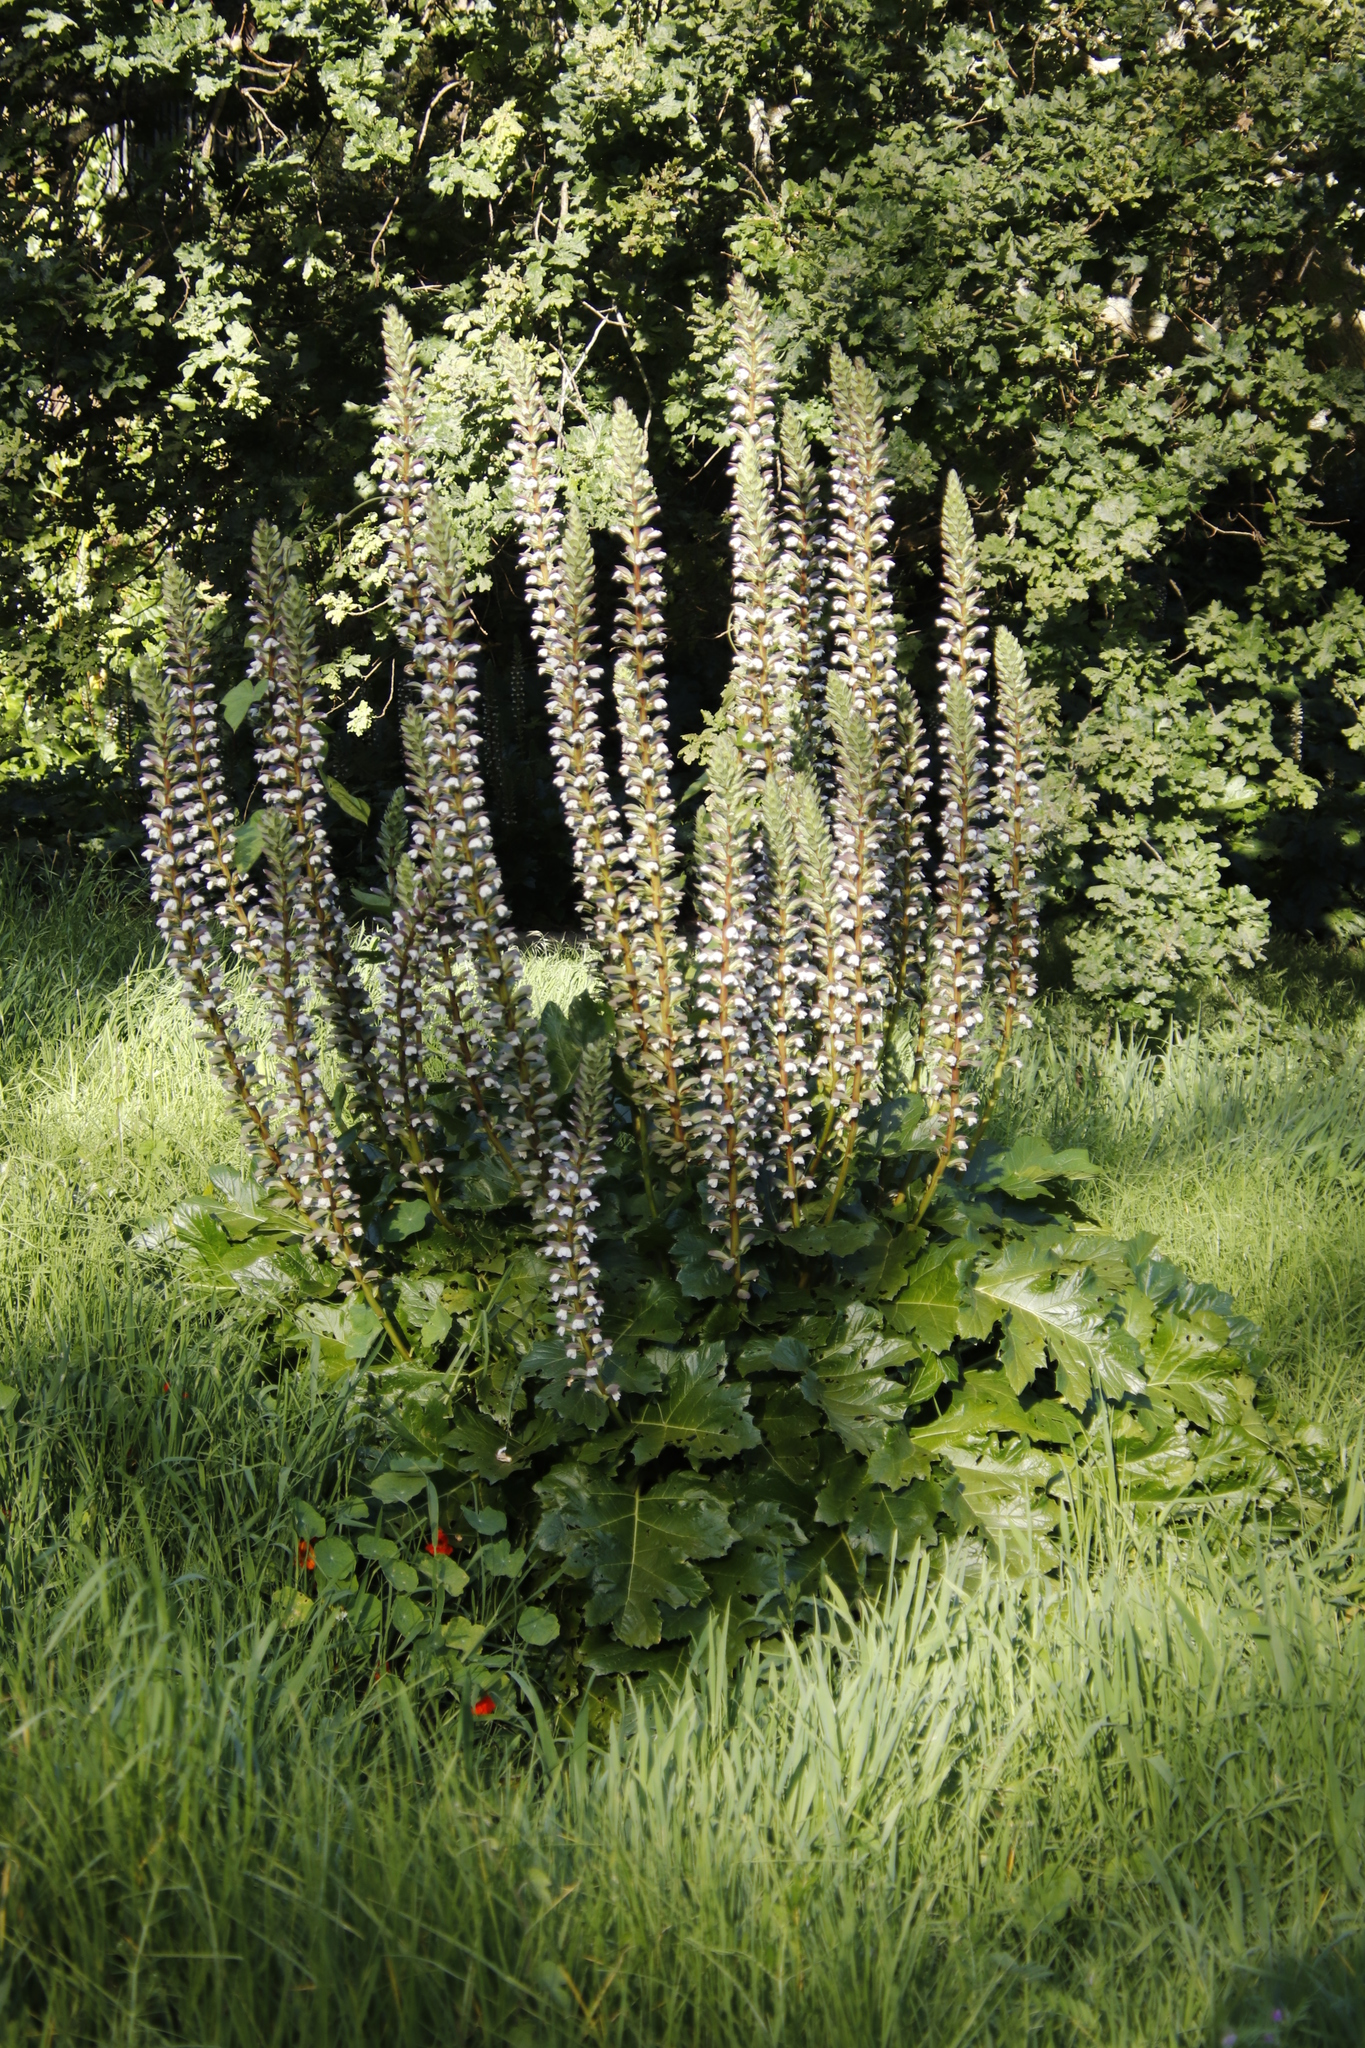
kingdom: Plantae
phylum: Tracheophyta
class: Magnoliopsida
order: Lamiales
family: Acanthaceae
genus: Acanthus
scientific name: Acanthus mollis
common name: Bear's-breech
